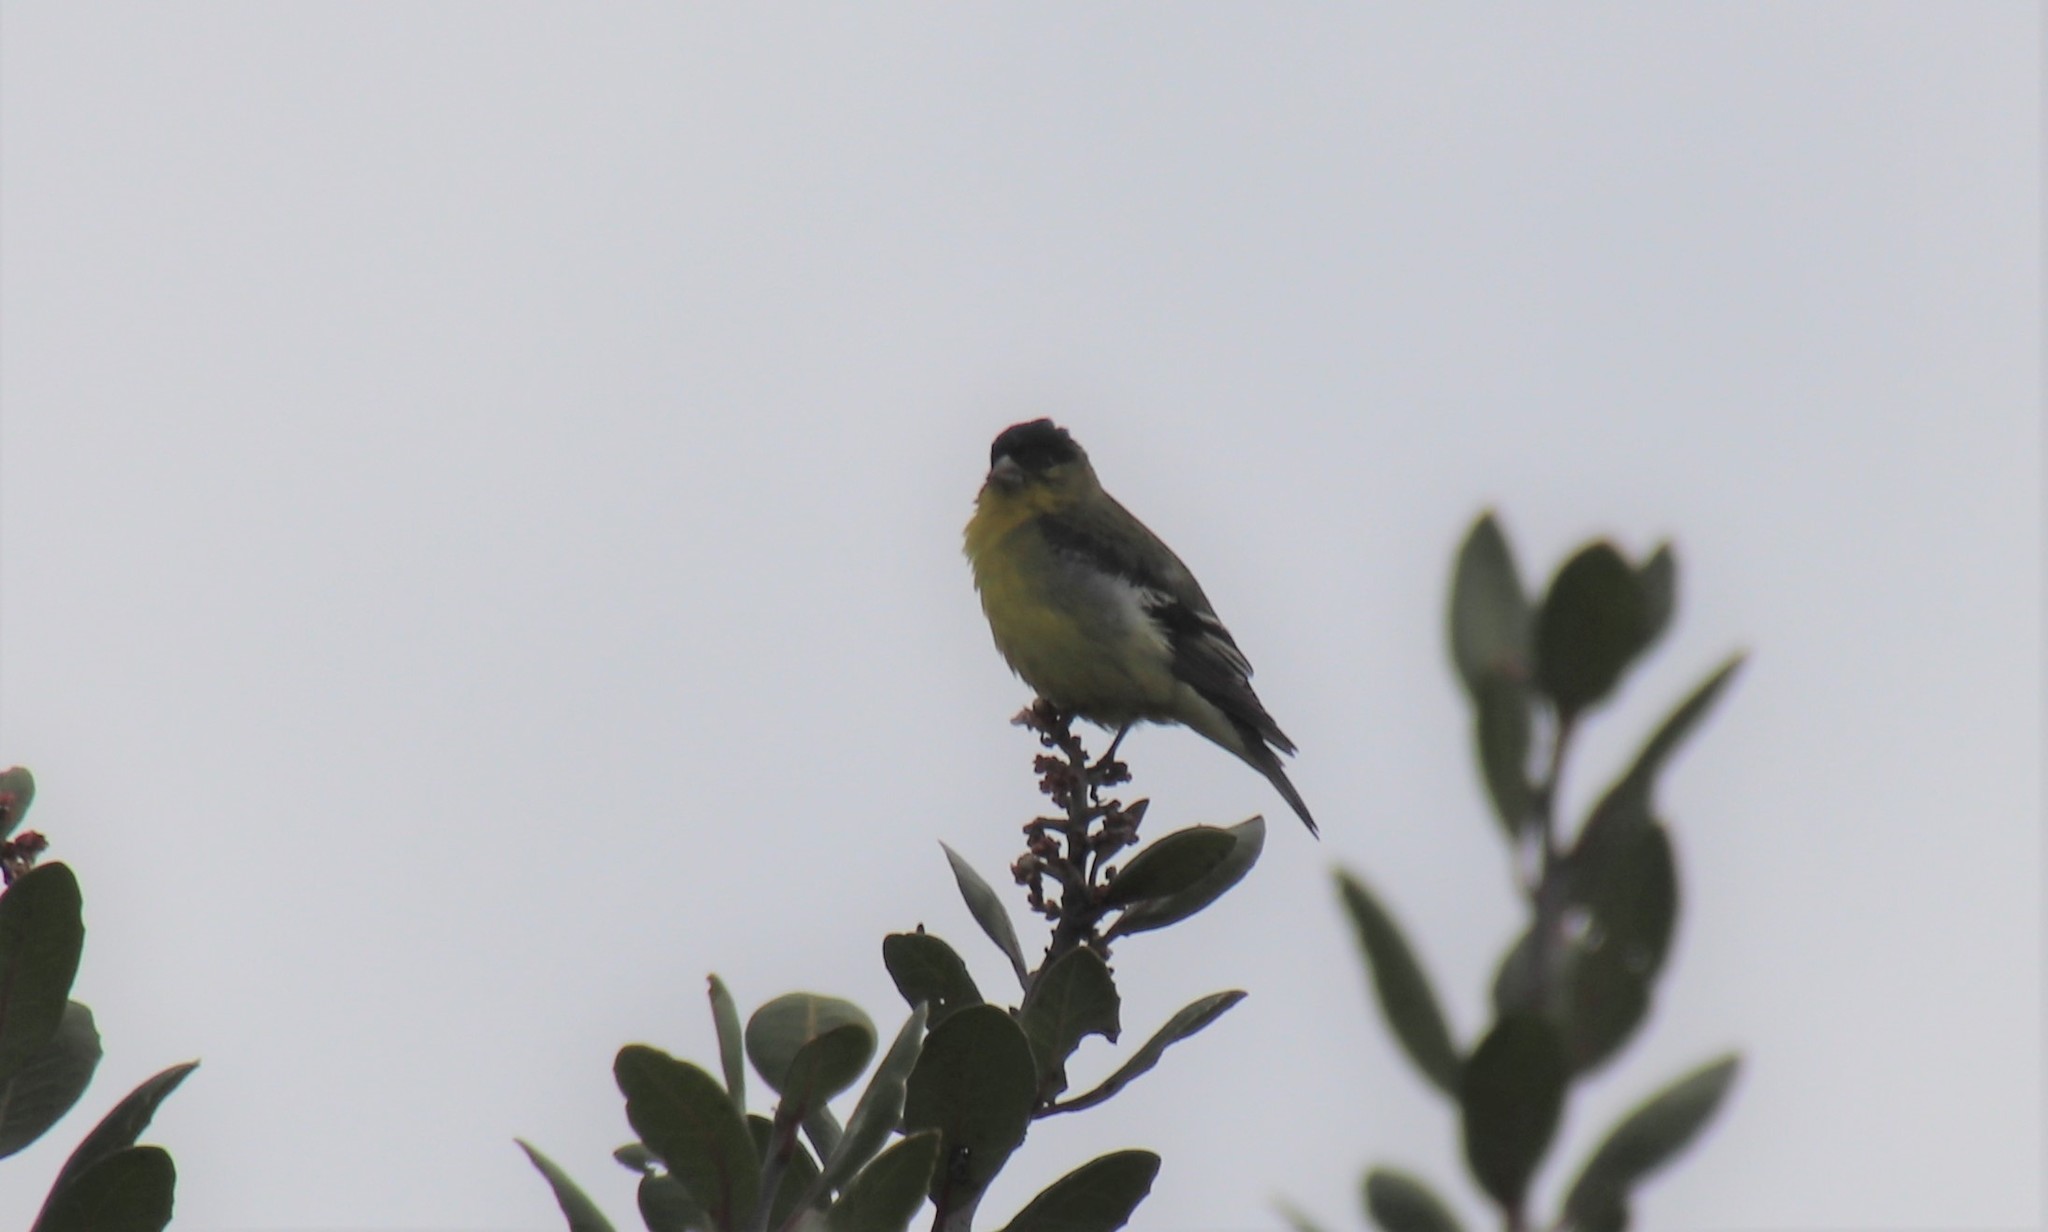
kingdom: Animalia
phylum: Chordata
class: Aves
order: Passeriformes
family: Fringillidae
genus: Spinus
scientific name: Spinus psaltria
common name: Lesser goldfinch
